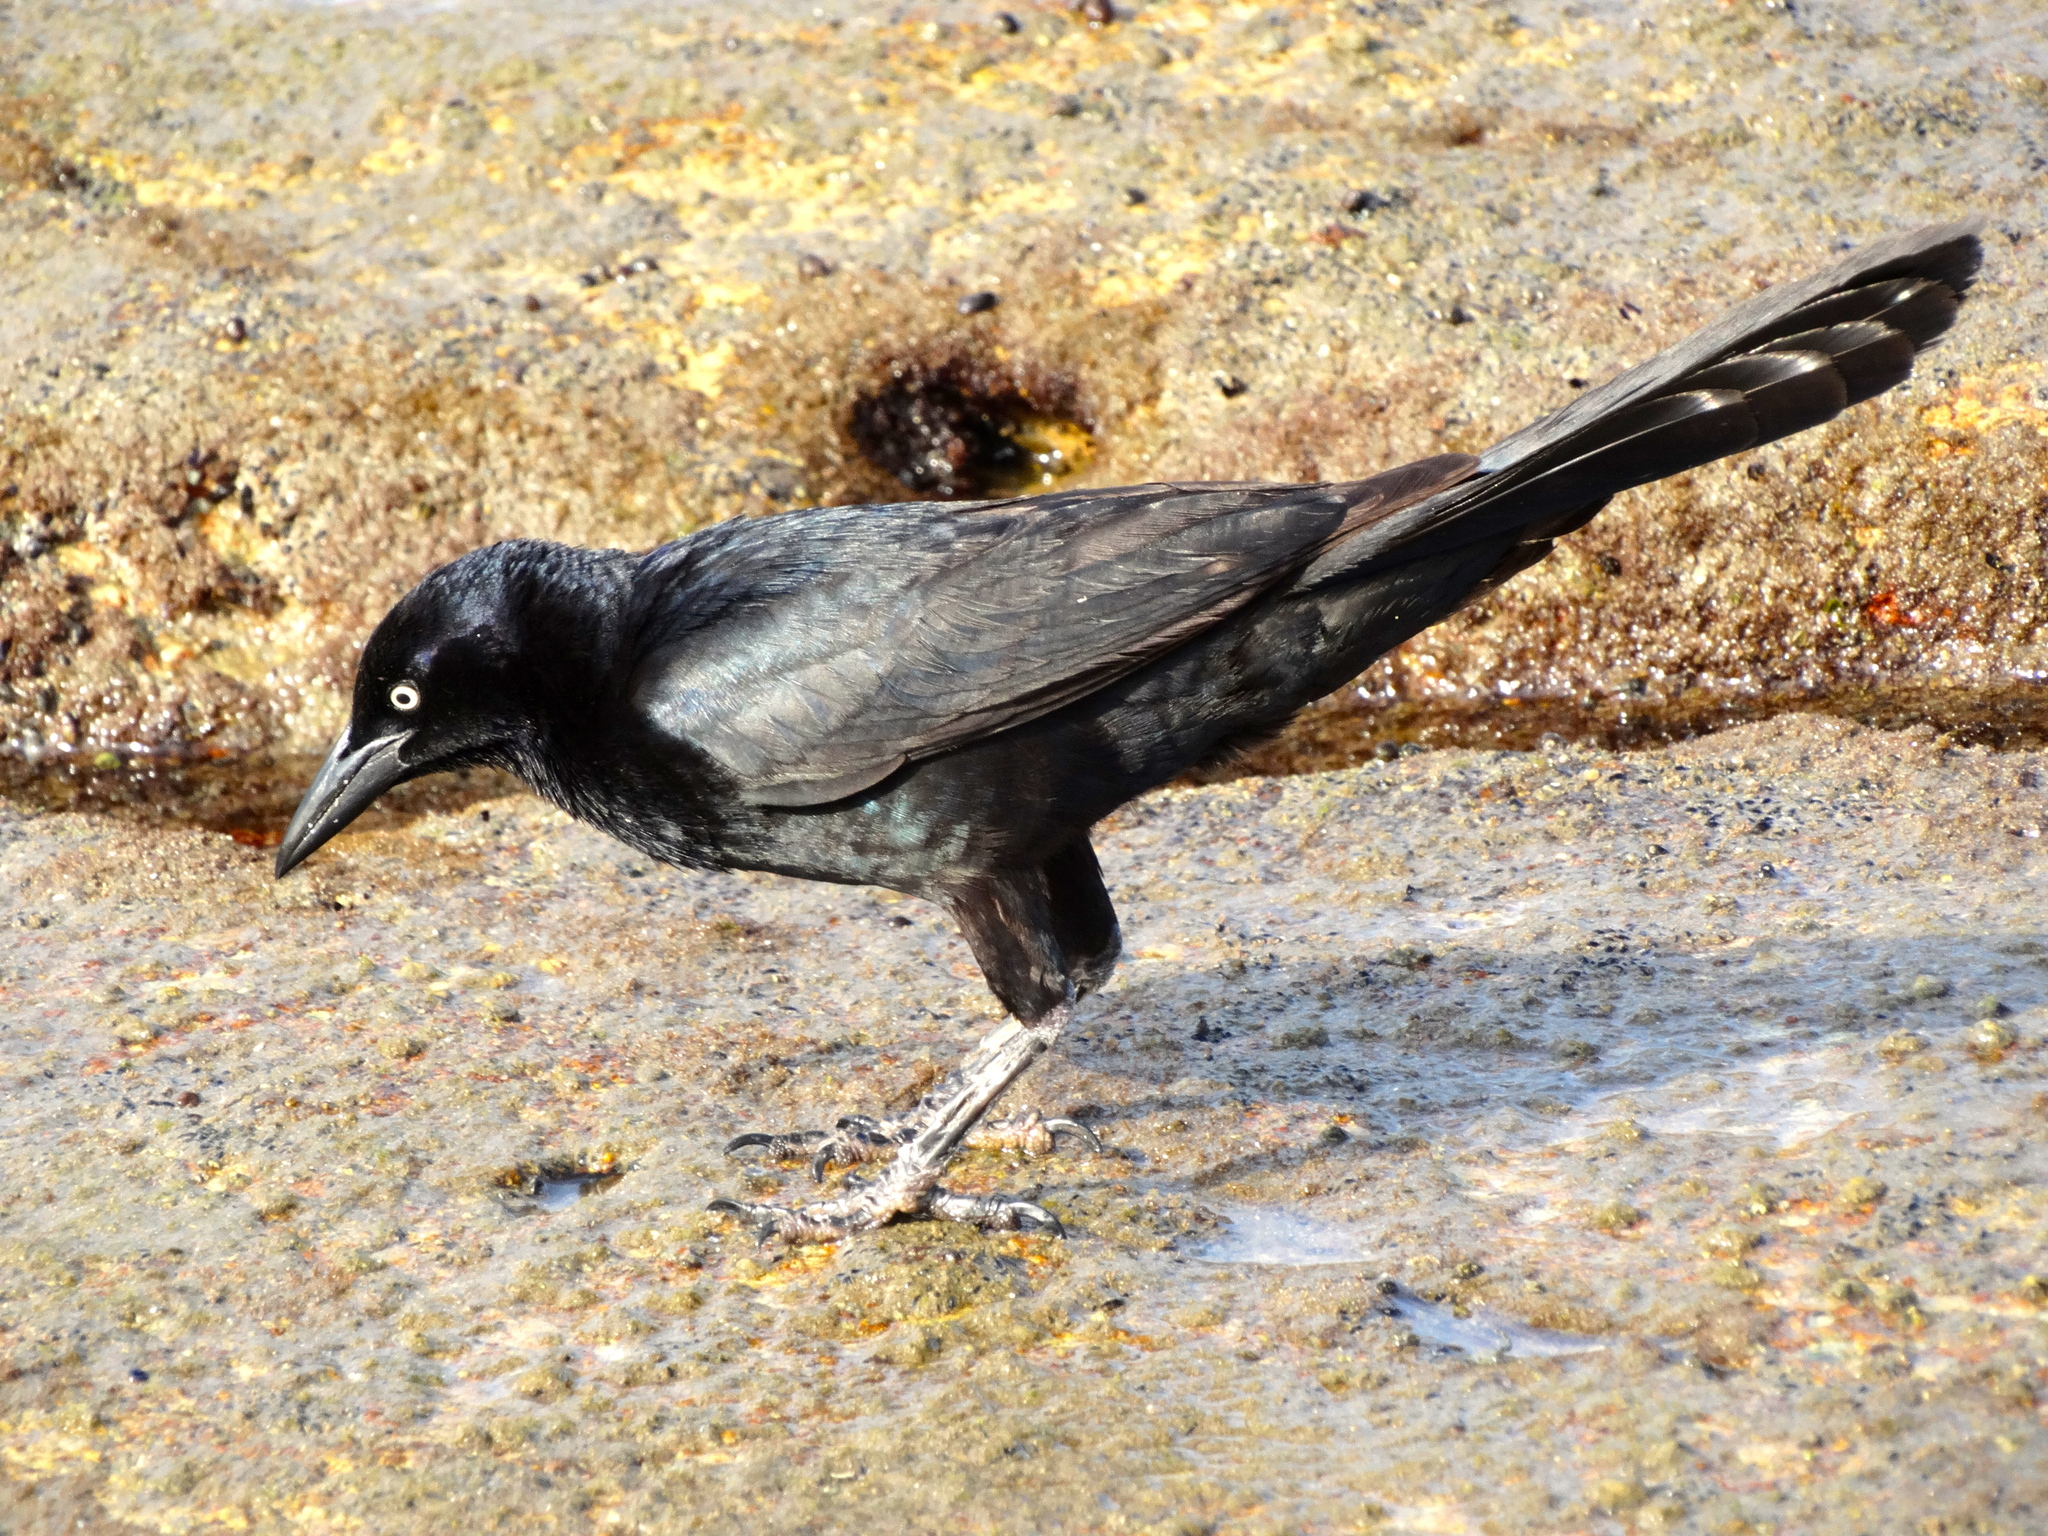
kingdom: Animalia
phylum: Chordata
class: Aves
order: Passeriformes
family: Icteridae
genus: Quiscalus
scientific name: Quiscalus mexicanus
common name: Great-tailed grackle
